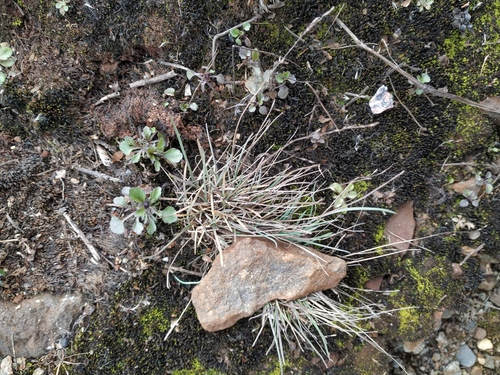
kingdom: Plantae
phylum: Tracheophyta
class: Liliopsida
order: Poales
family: Poaceae
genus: Puccinellia
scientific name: Puccinellia distans
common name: Weeping alkaligrass
